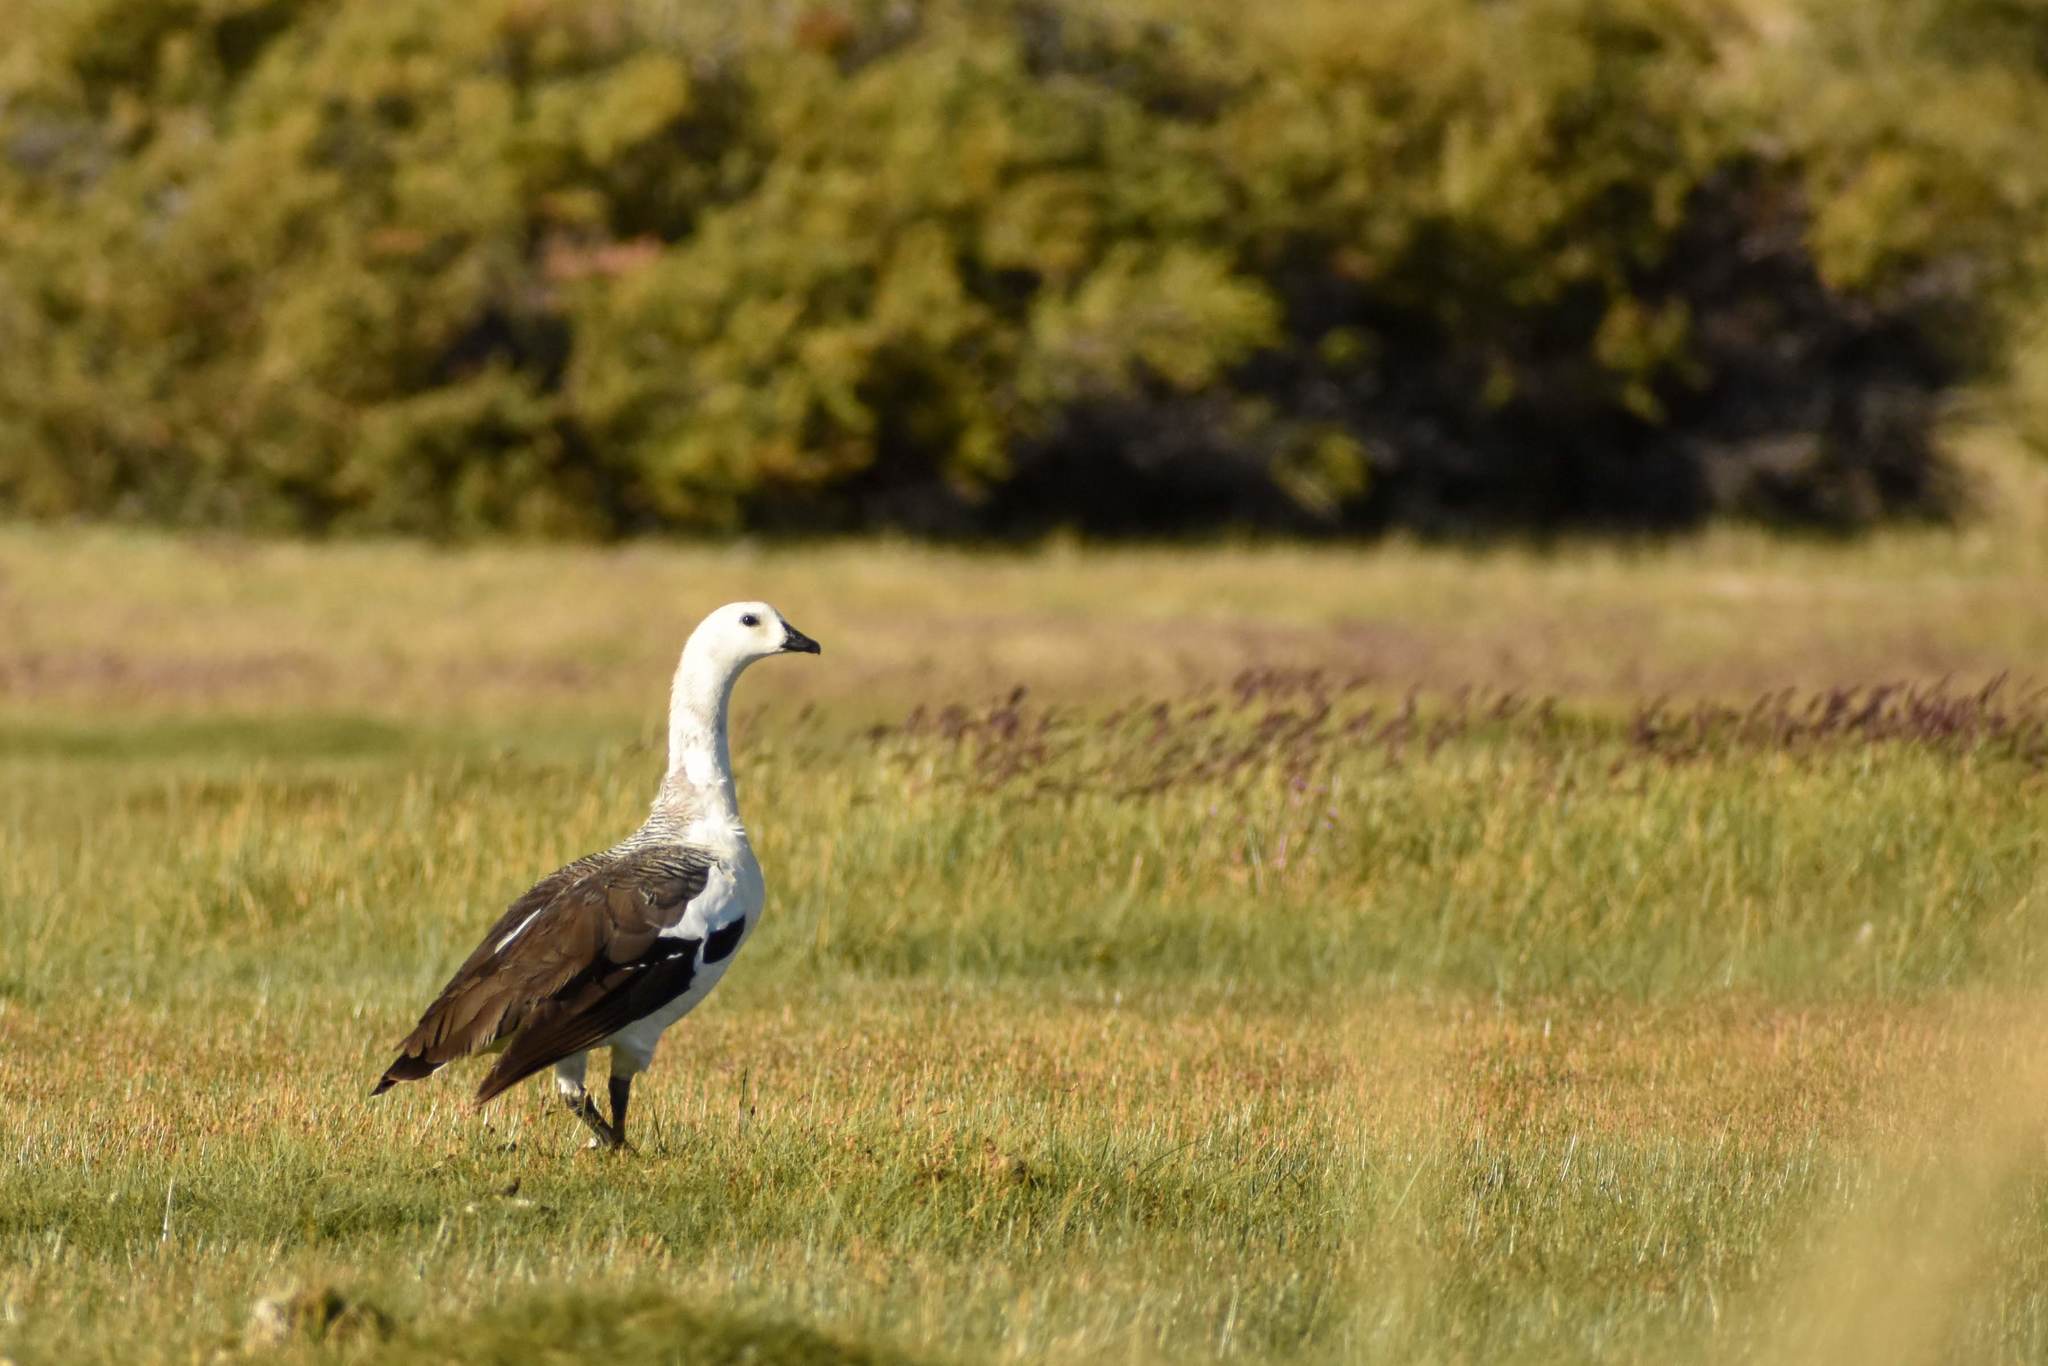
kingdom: Animalia
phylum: Chordata
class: Aves
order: Anseriformes
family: Anatidae
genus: Chloephaga
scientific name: Chloephaga picta
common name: Upland goose
